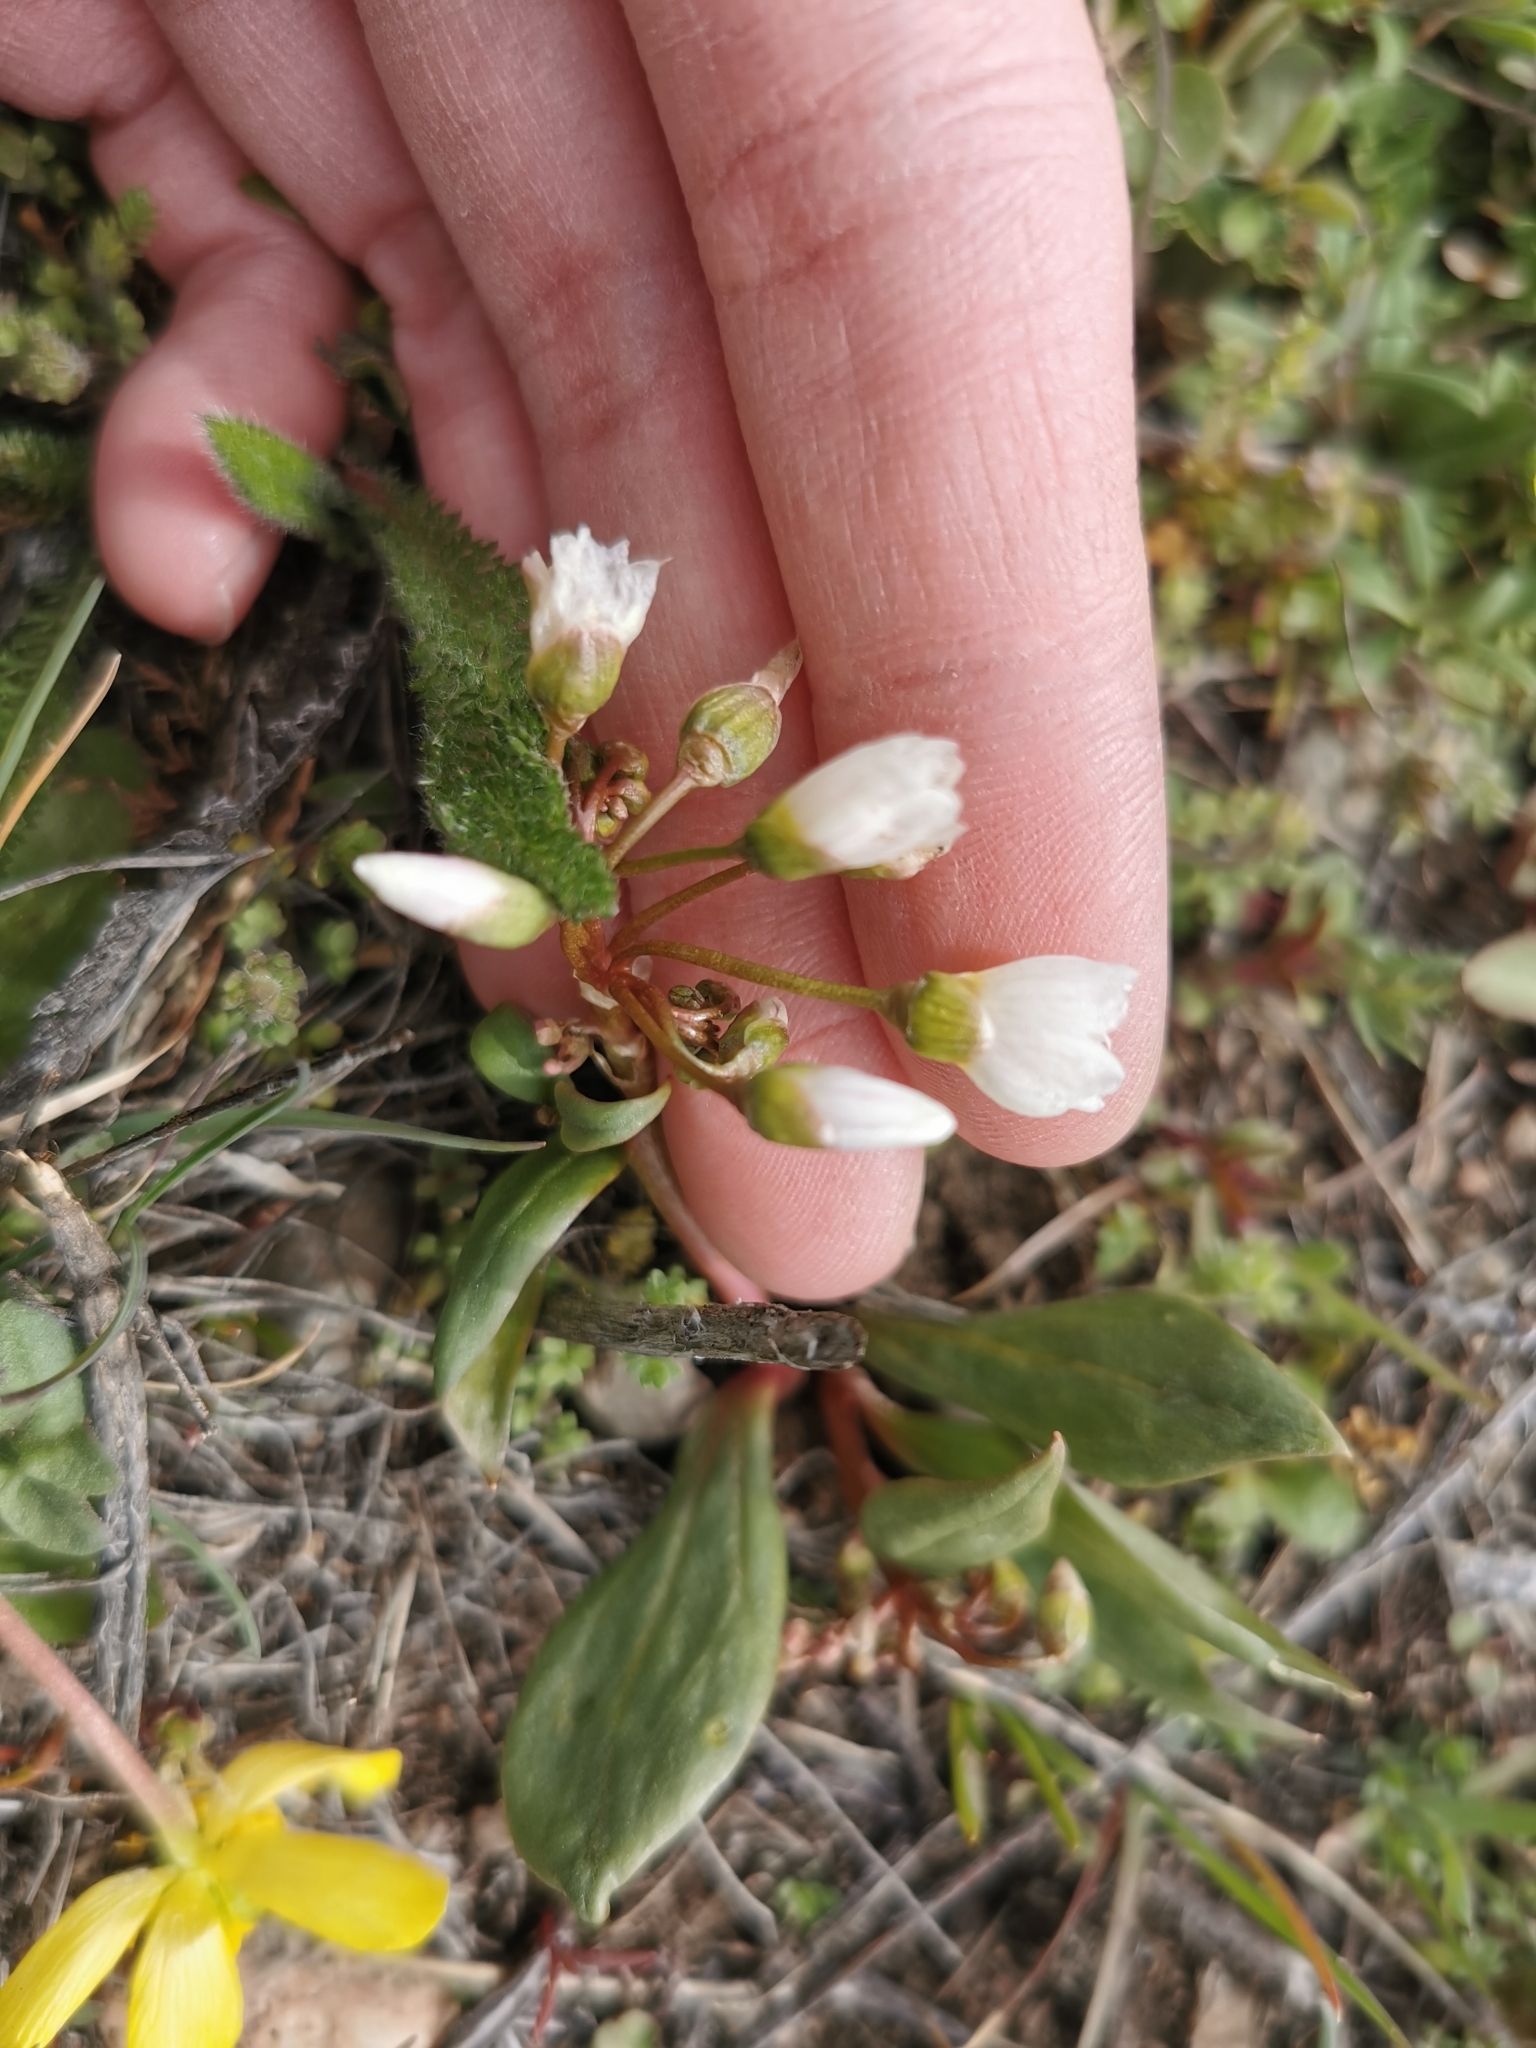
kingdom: Plantae
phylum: Tracheophyta
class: Magnoliopsida
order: Caryophyllales
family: Montiaceae
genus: Claytonia
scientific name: Claytonia lanceolata
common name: Western spring-beauty
